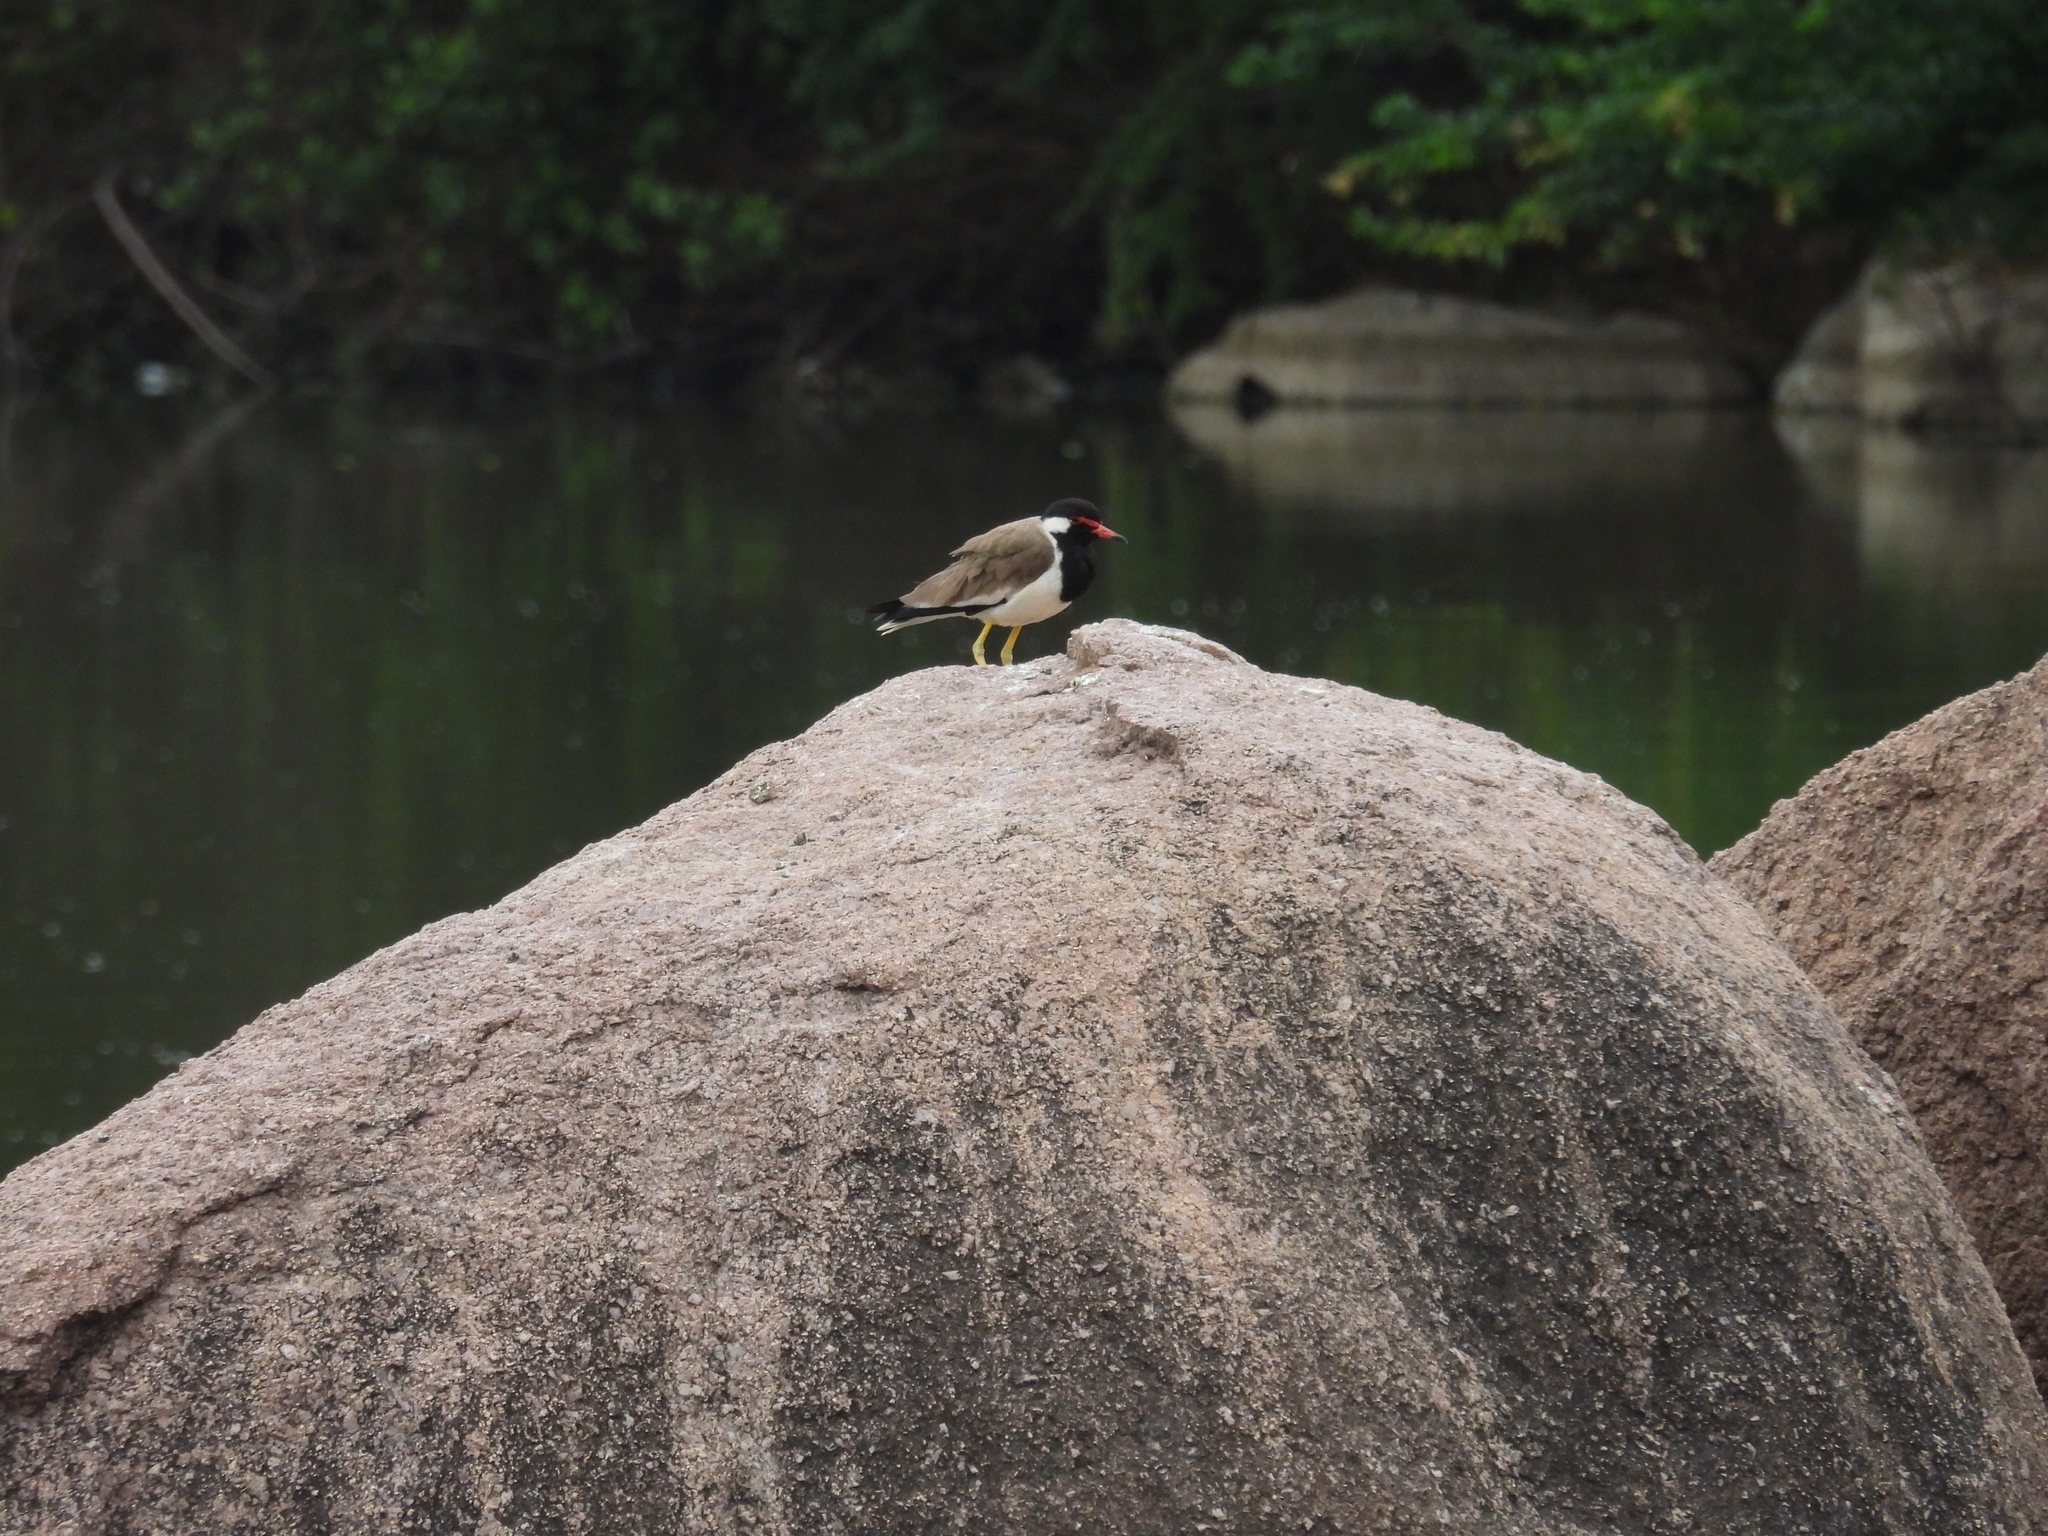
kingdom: Animalia
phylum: Chordata
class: Aves
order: Charadriiformes
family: Charadriidae
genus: Vanellus
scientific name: Vanellus indicus
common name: Red-wattled lapwing
